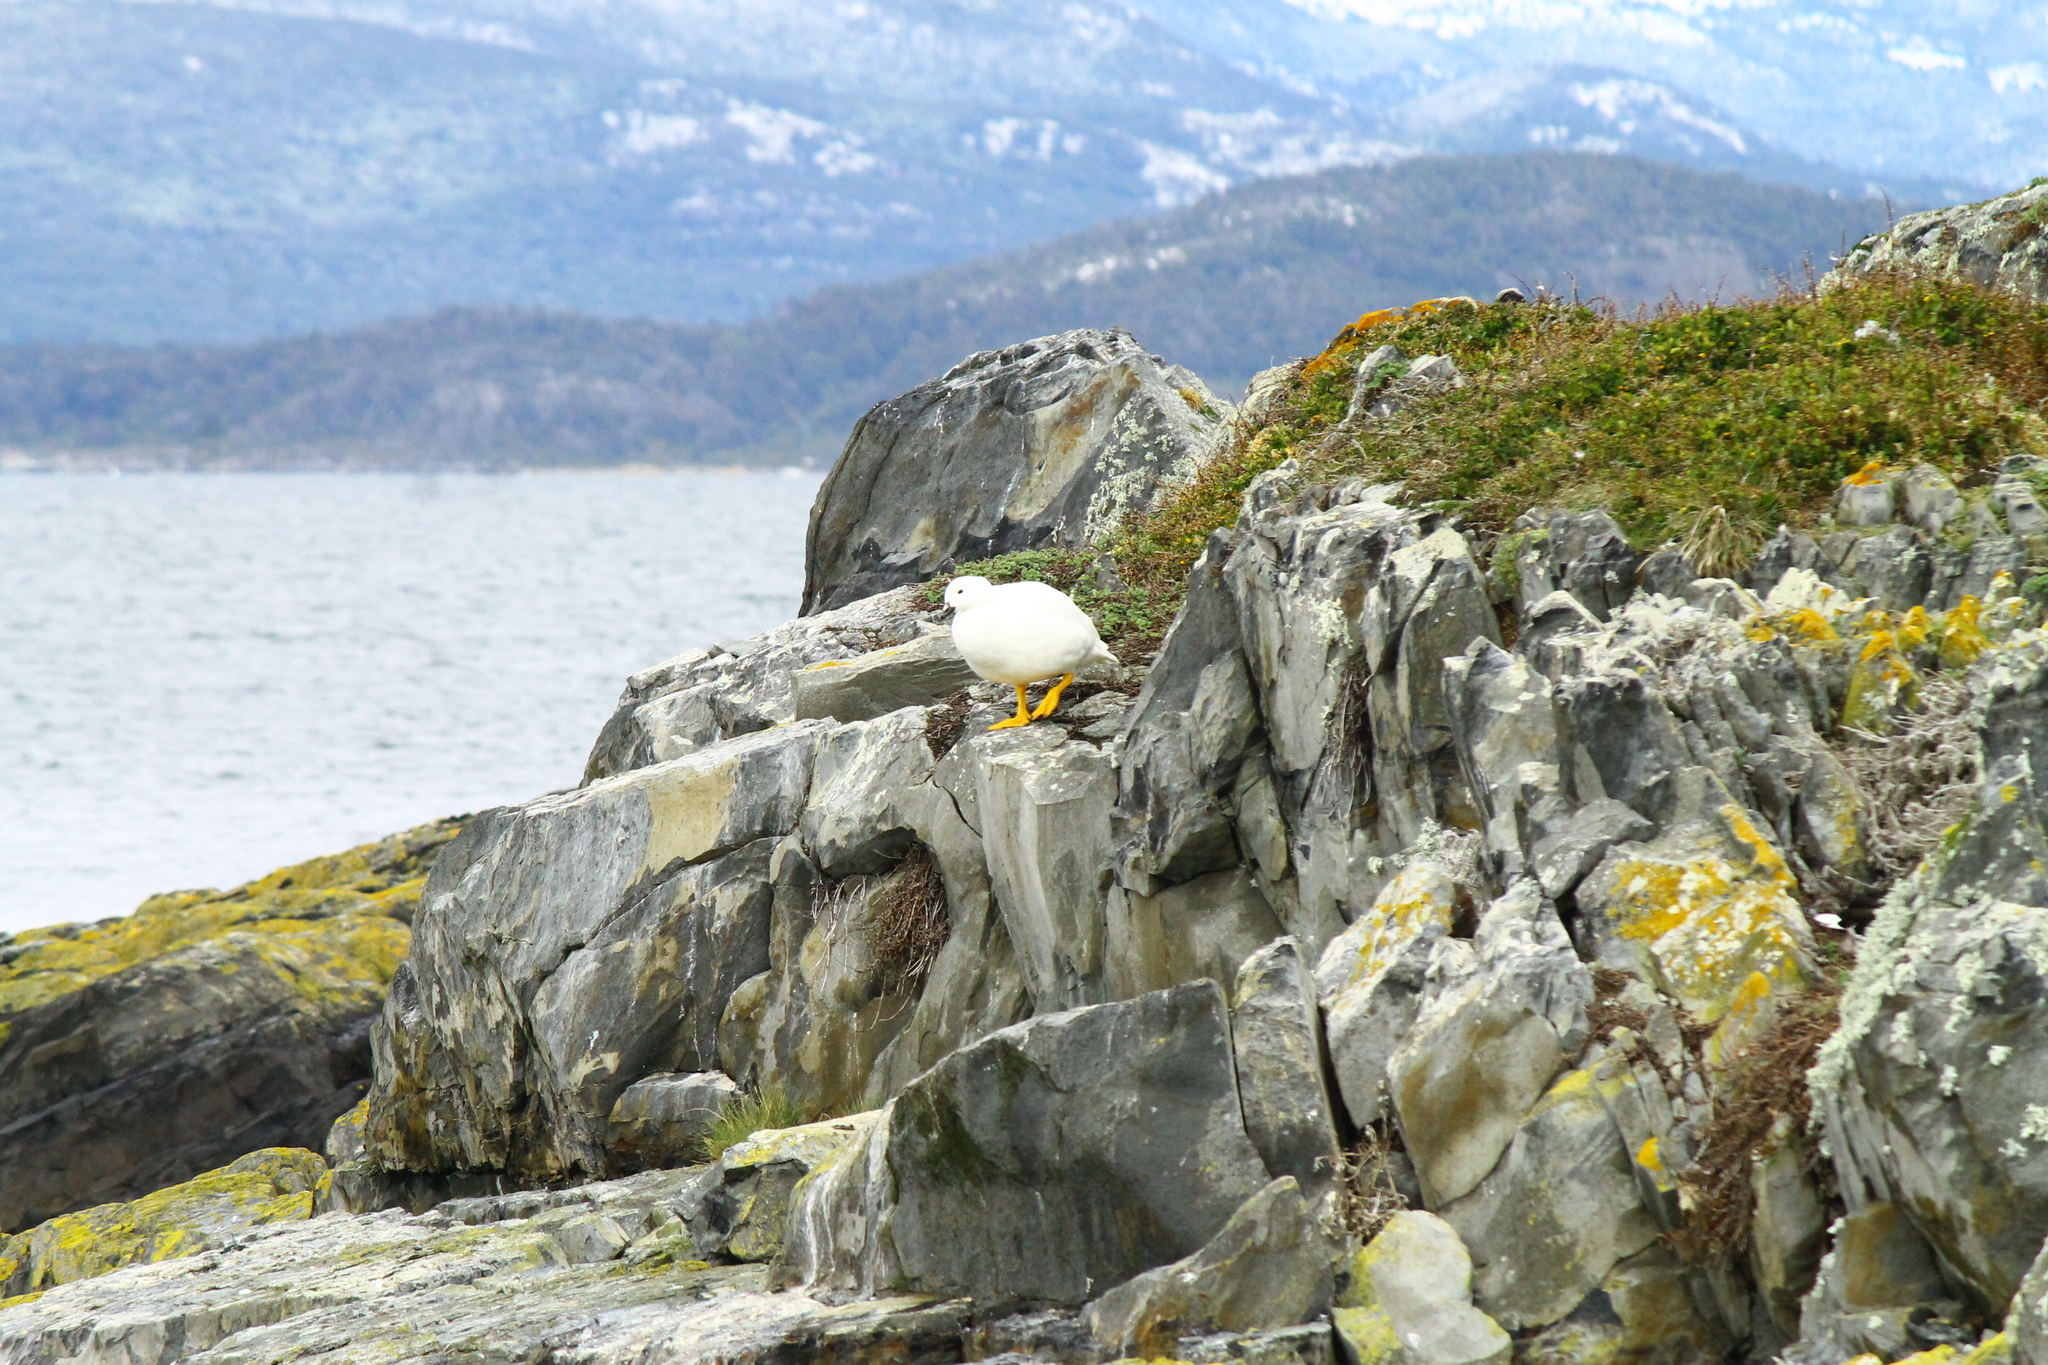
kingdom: Animalia
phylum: Chordata
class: Aves
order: Anseriformes
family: Anatidae
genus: Chloephaga
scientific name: Chloephaga hybrida
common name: Kelp goose
